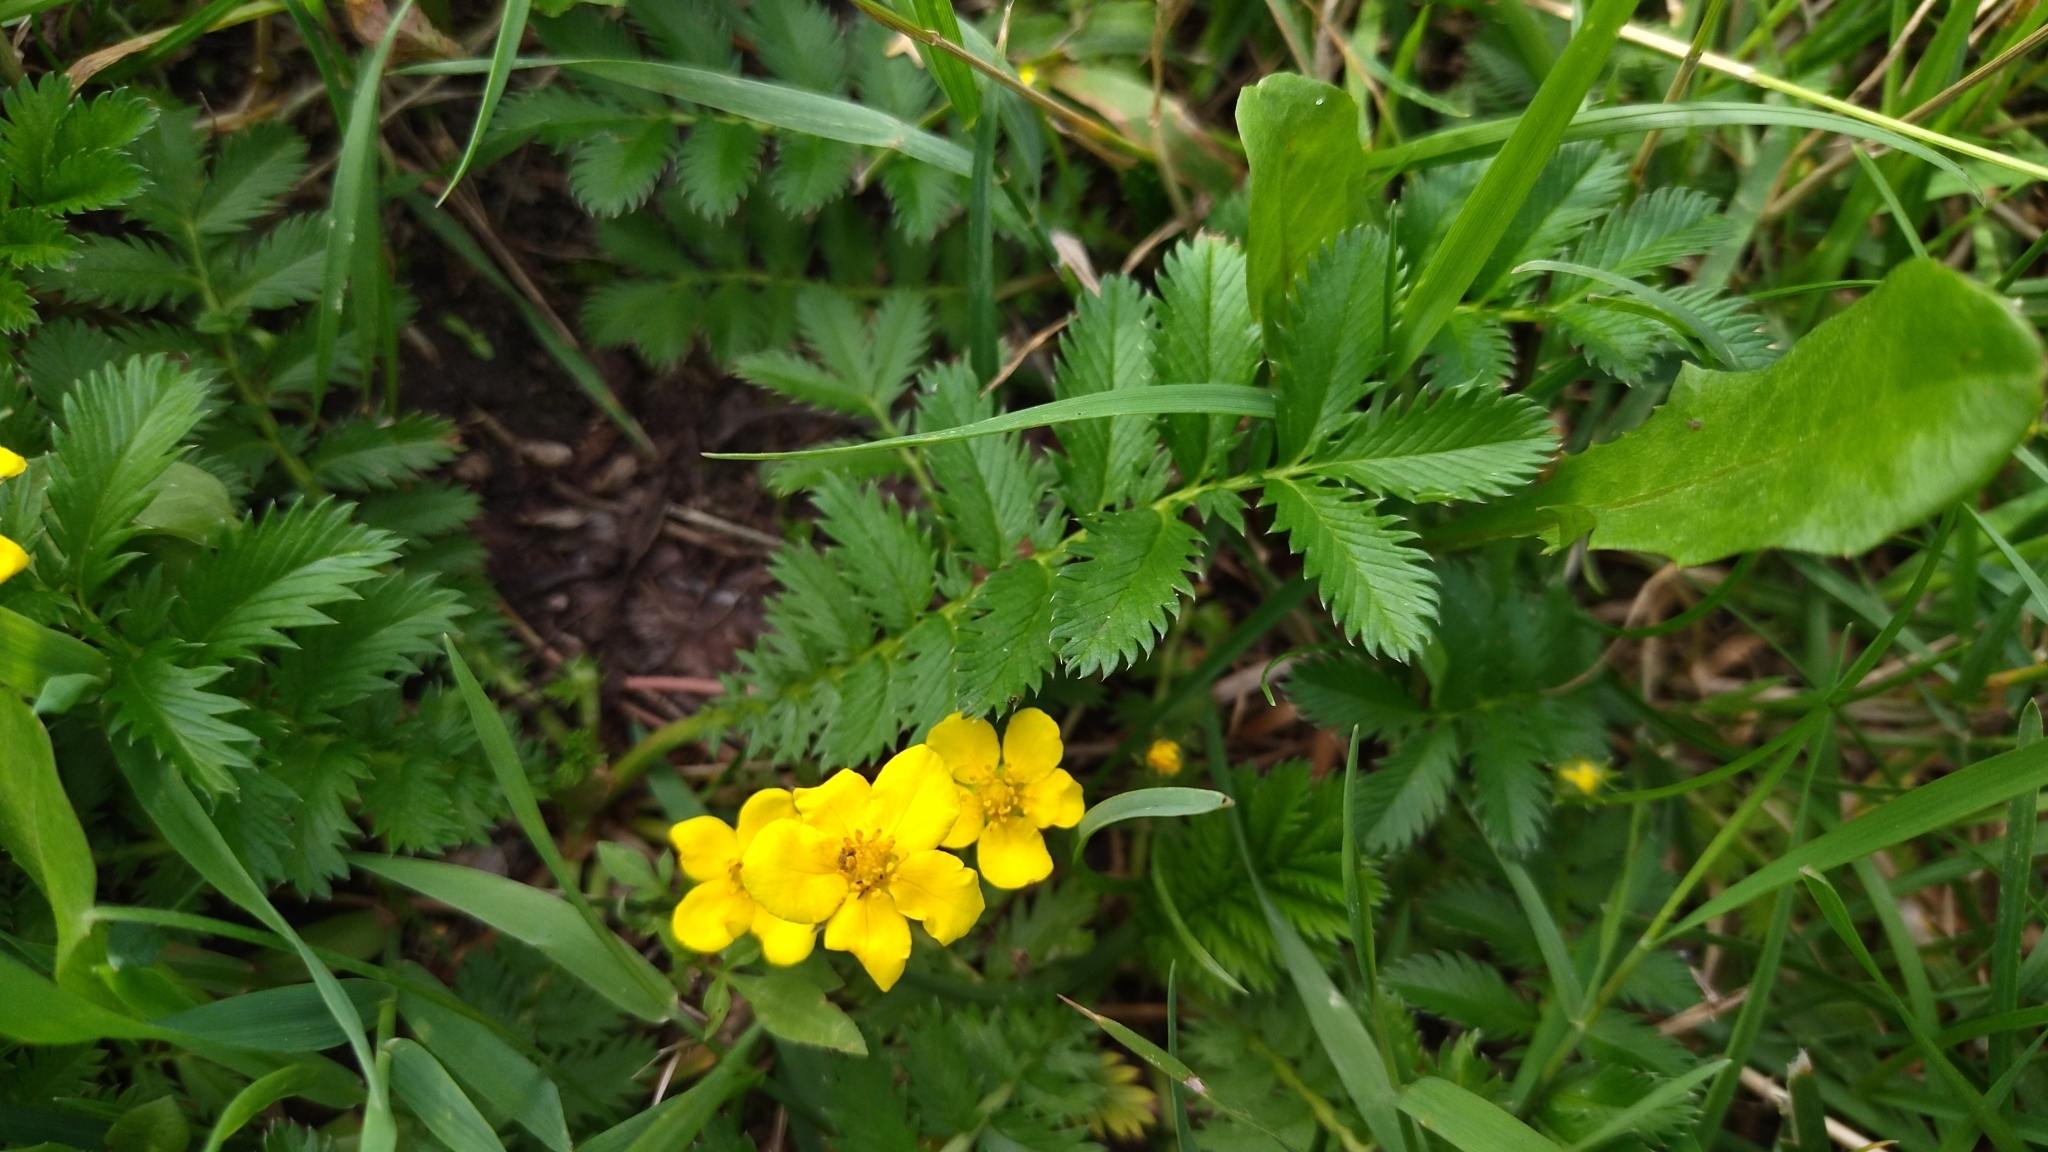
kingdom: Plantae
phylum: Tracheophyta
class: Magnoliopsida
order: Rosales
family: Rosaceae
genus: Argentina
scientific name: Argentina anserina
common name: Common silverweed
